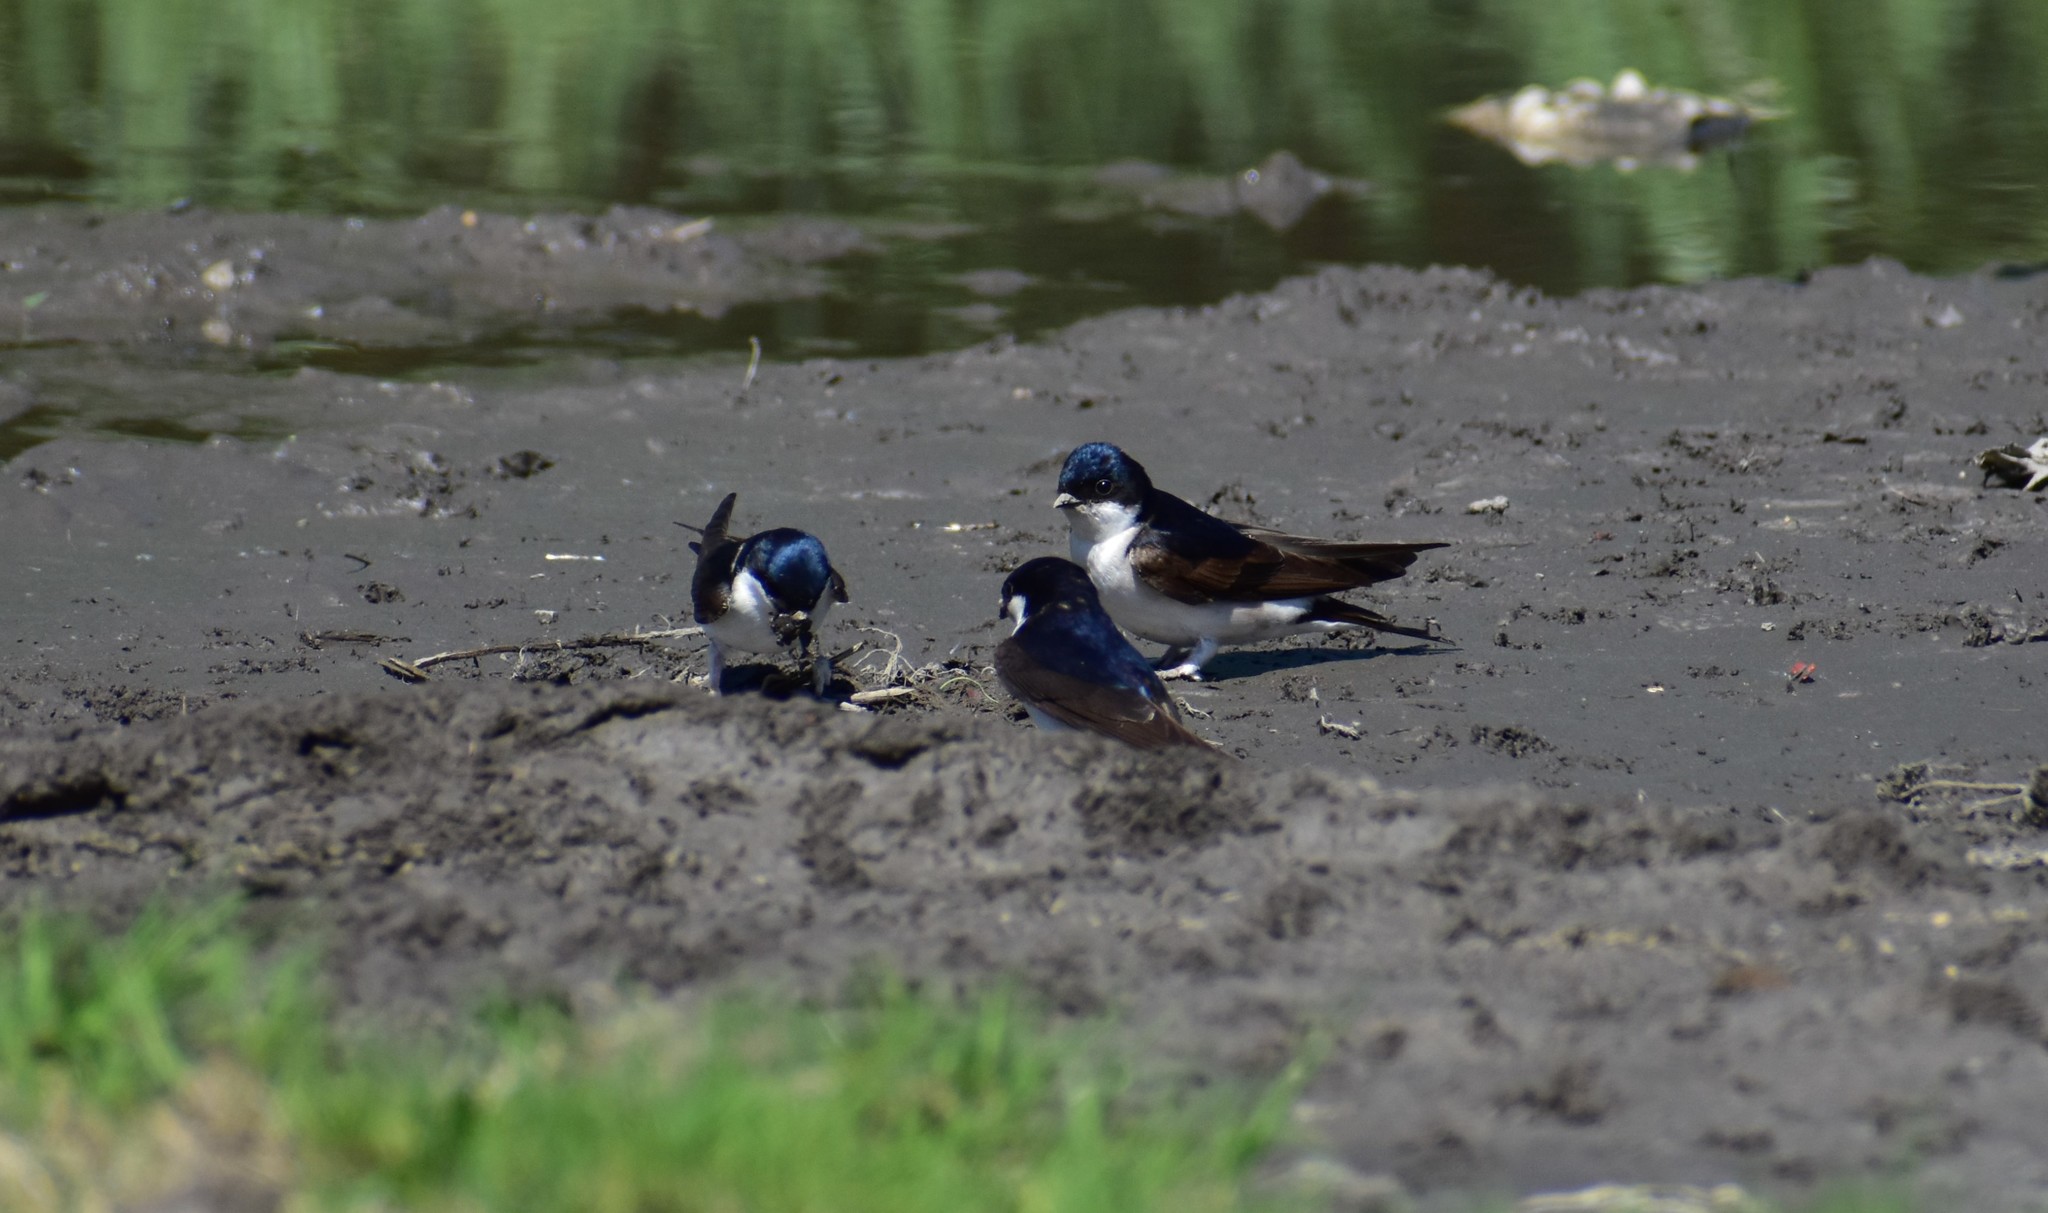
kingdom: Animalia
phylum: Chordata
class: Aves
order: Passeriformes
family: Hirundinidae
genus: Delichon
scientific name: Delichon urbicum
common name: Common house martin
